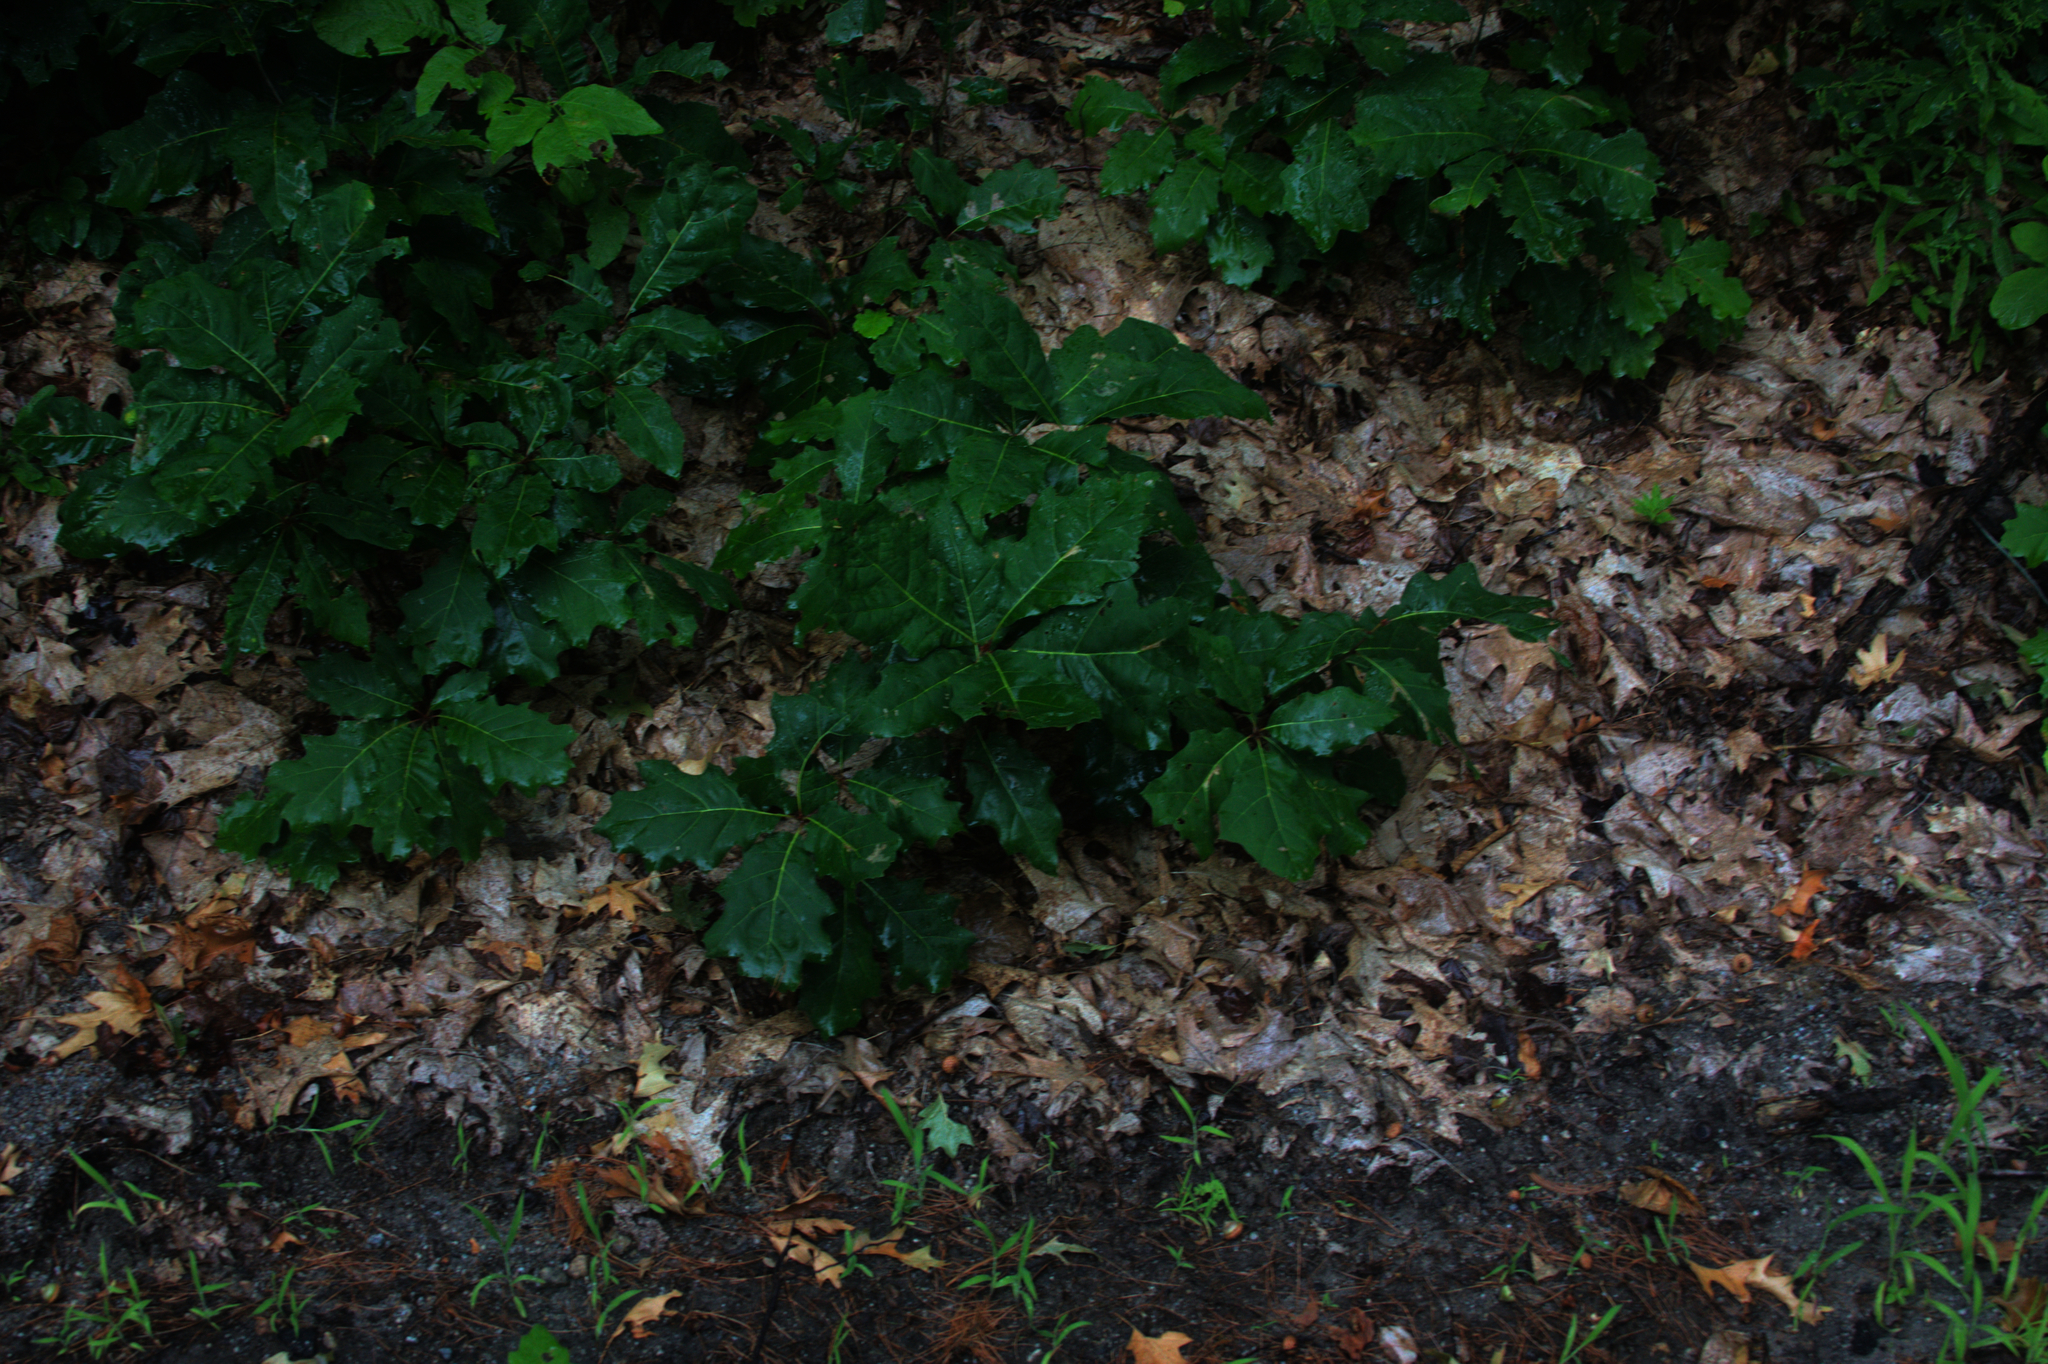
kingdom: Plantae
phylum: Tracheophyta
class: Magnoliopsida
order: Fagales
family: Fagaceae
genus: Quercus
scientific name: Quercus rubra
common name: Red oak
